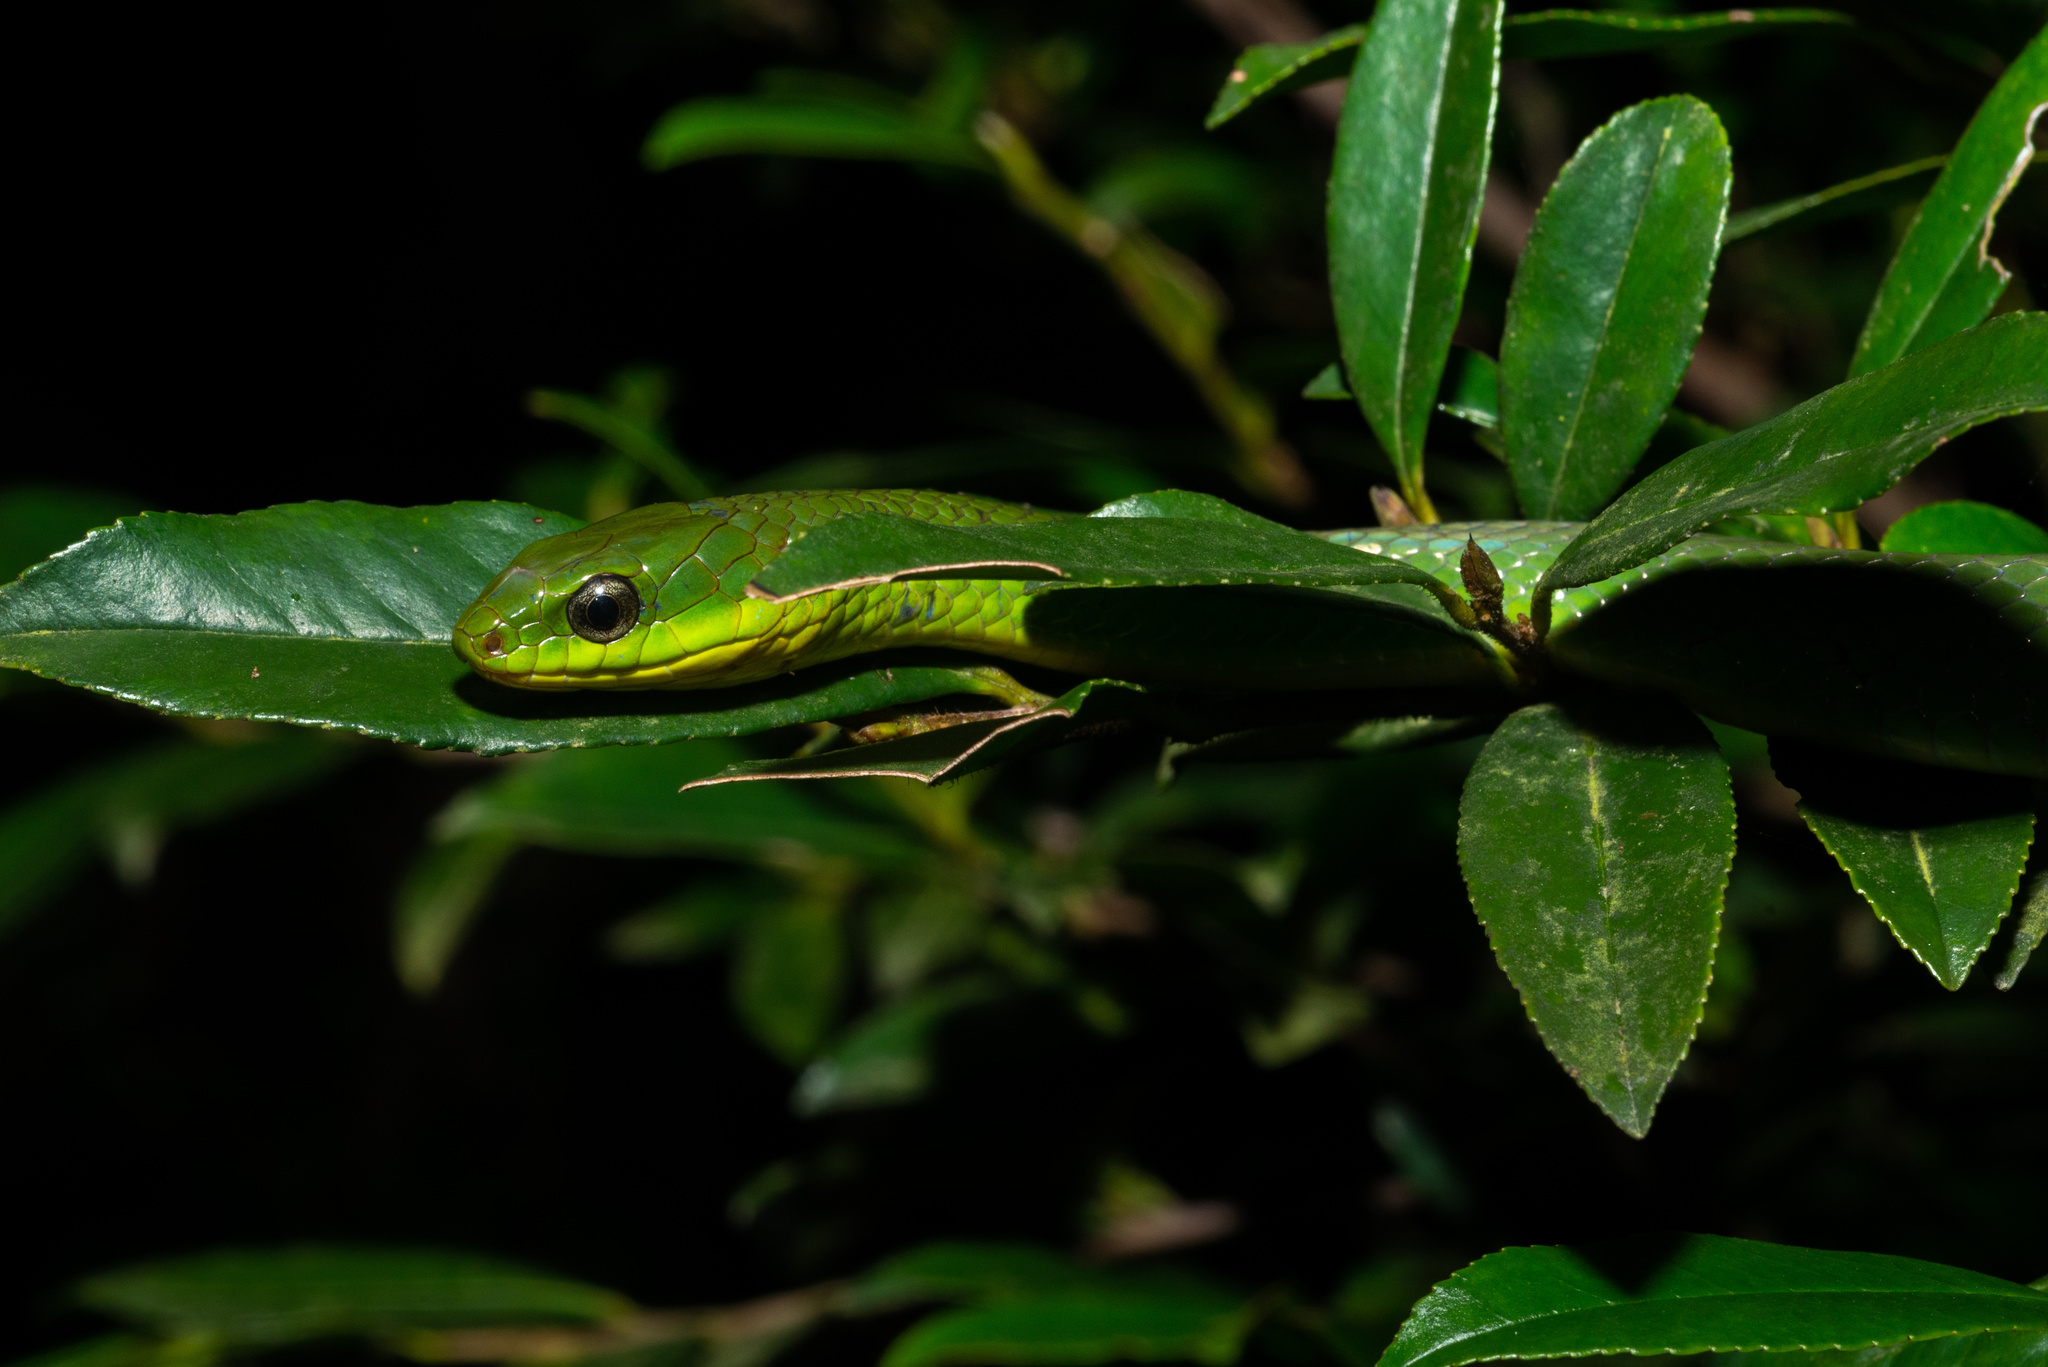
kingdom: Animalia
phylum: Chordata
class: Squamata
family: Colubridae
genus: Ptyas
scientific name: Ptyas major
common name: Chinese green snake
